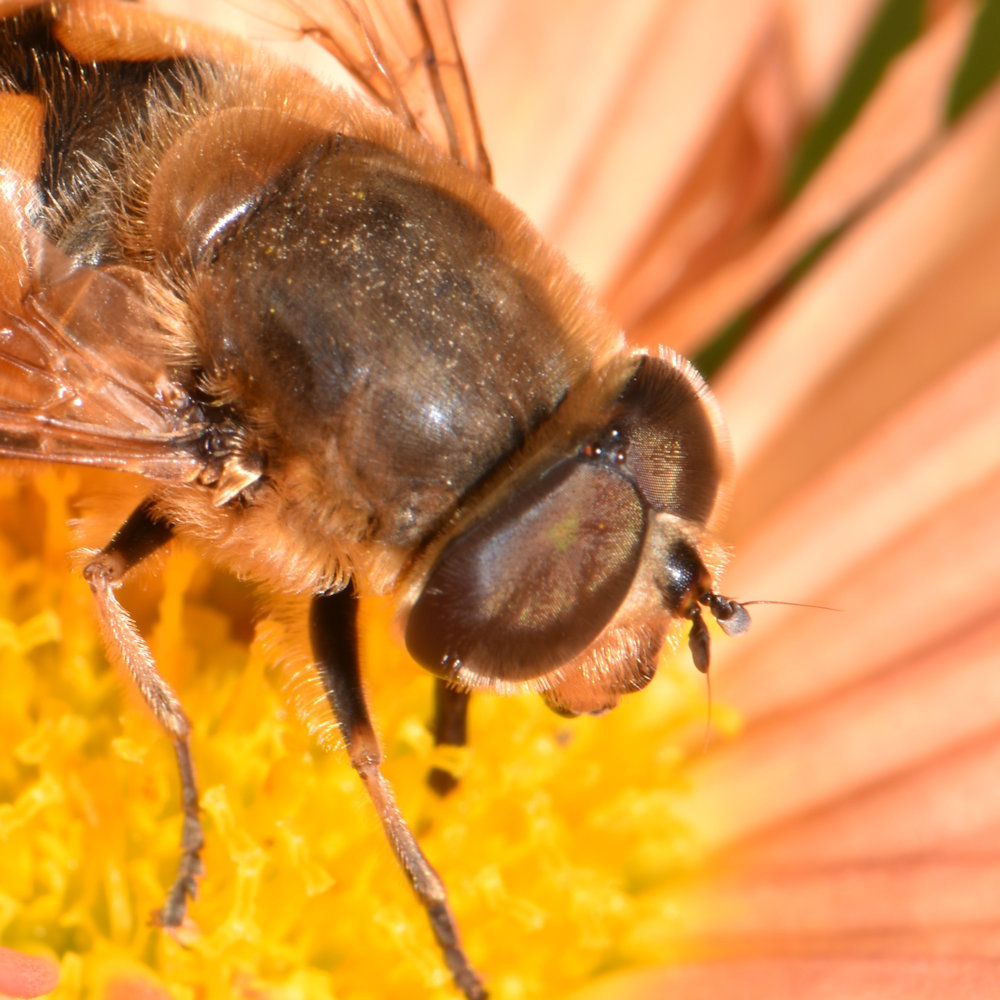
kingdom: Animalia
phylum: Arthropoda
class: Insecta
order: Diptera
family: Syrphidae
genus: Eristalis
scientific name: Eristalis tenax
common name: Drone fly
